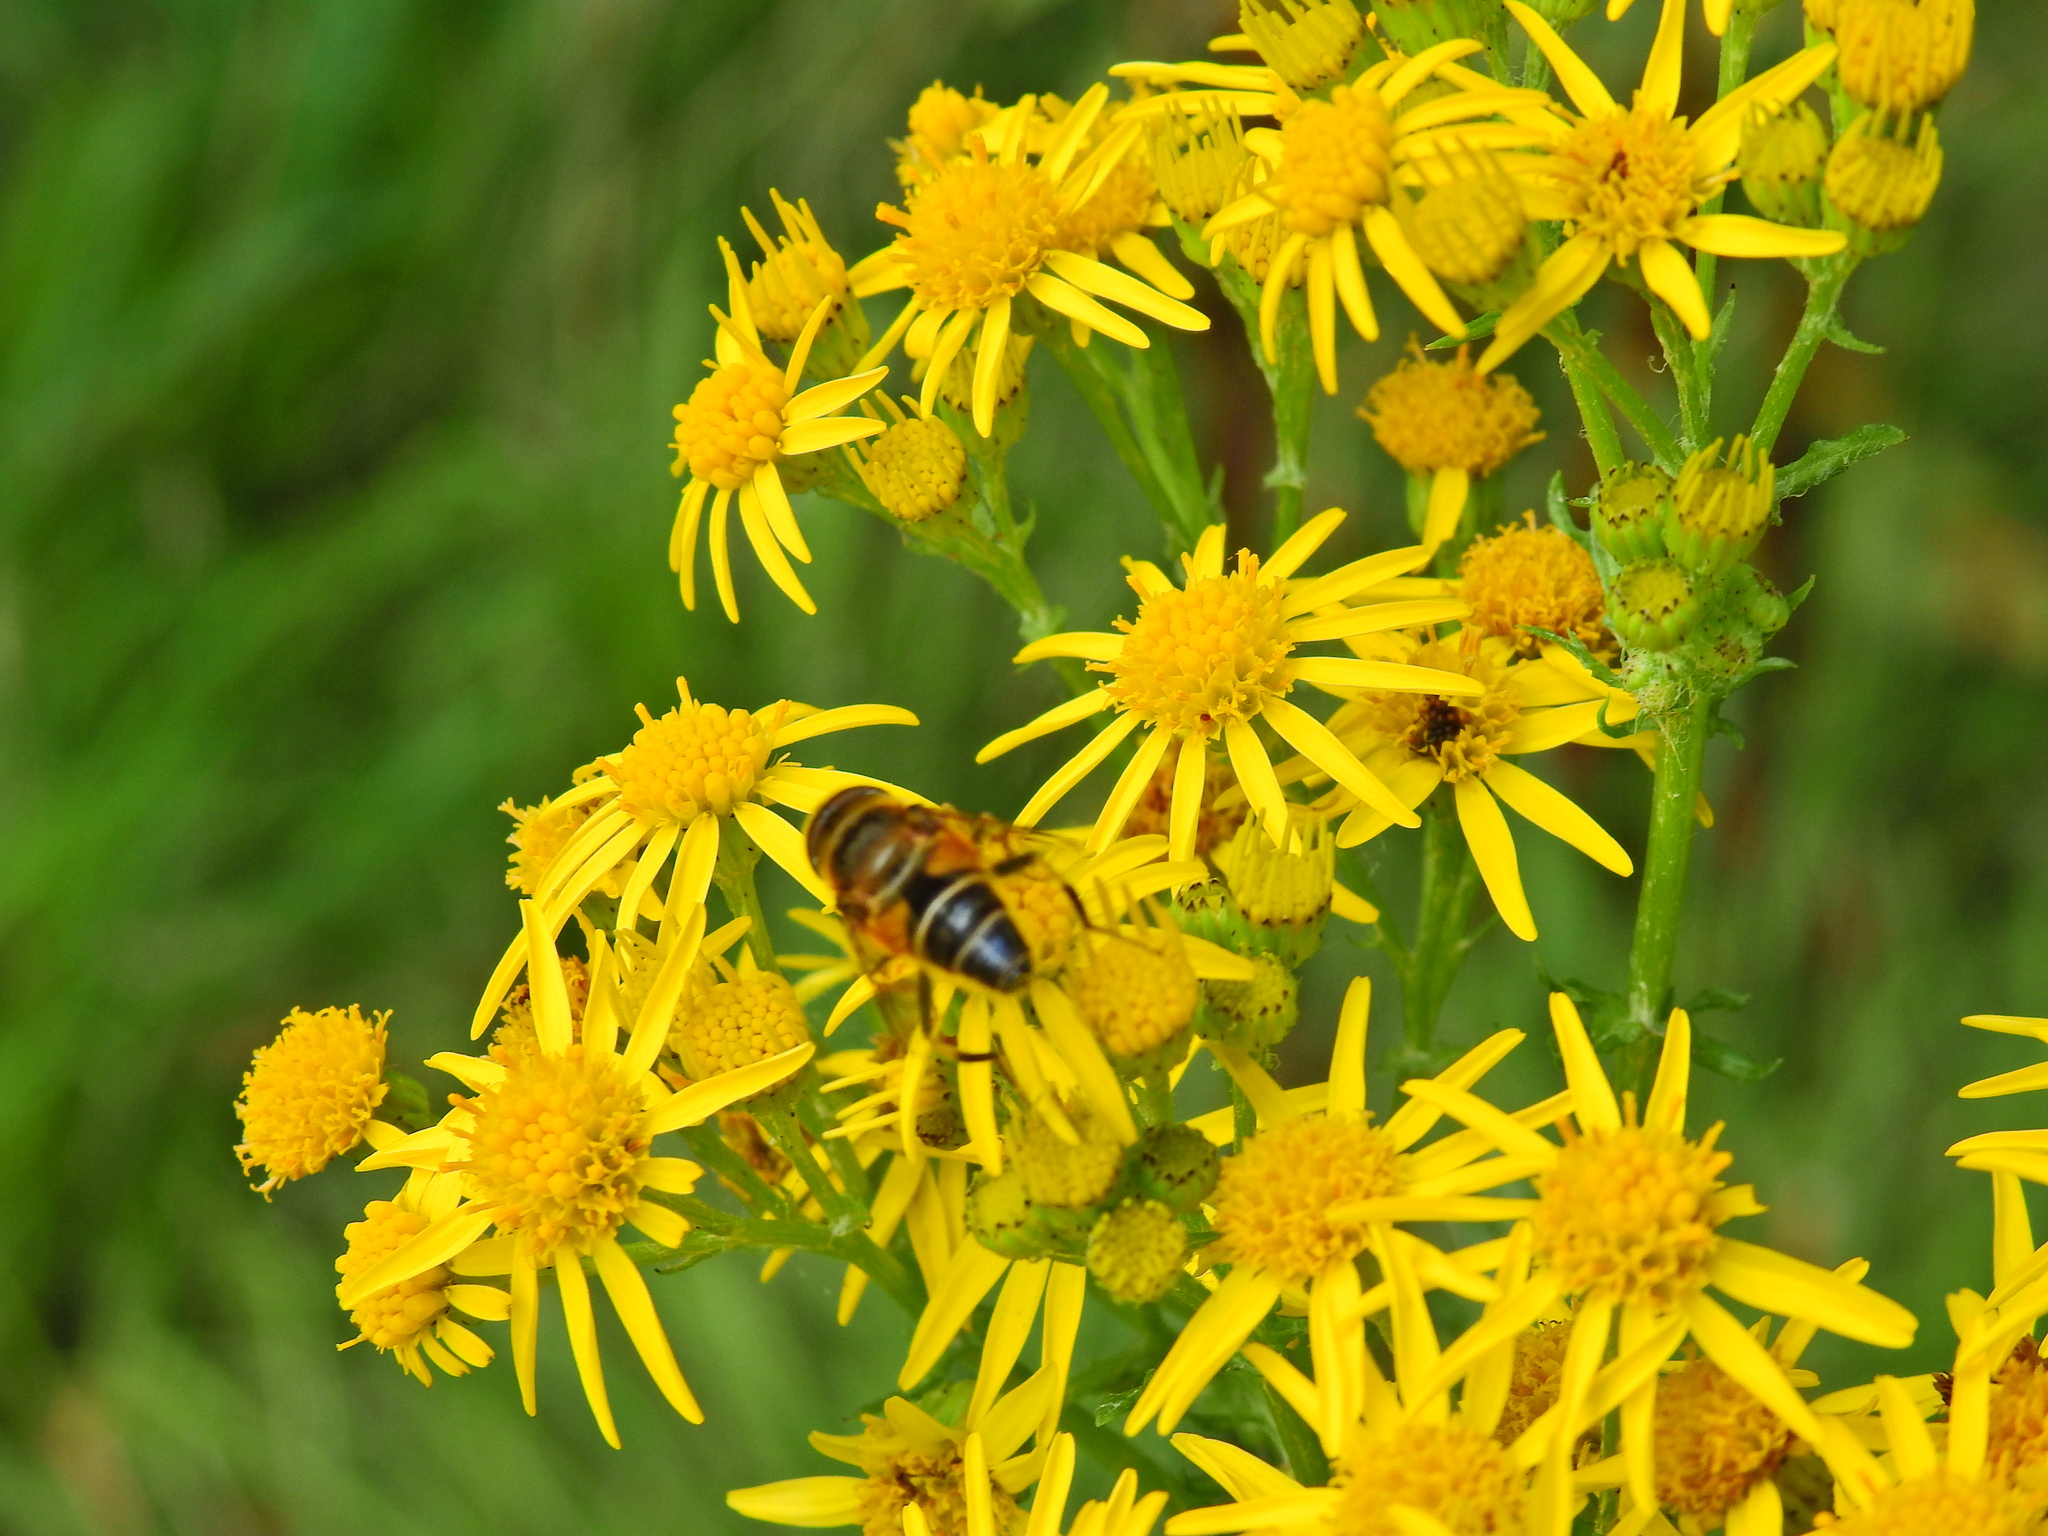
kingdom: Animalia
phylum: Arthropoda
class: Insecta
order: Diptera
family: Syrphidae
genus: Eristalis
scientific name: Eristalis pertinax
